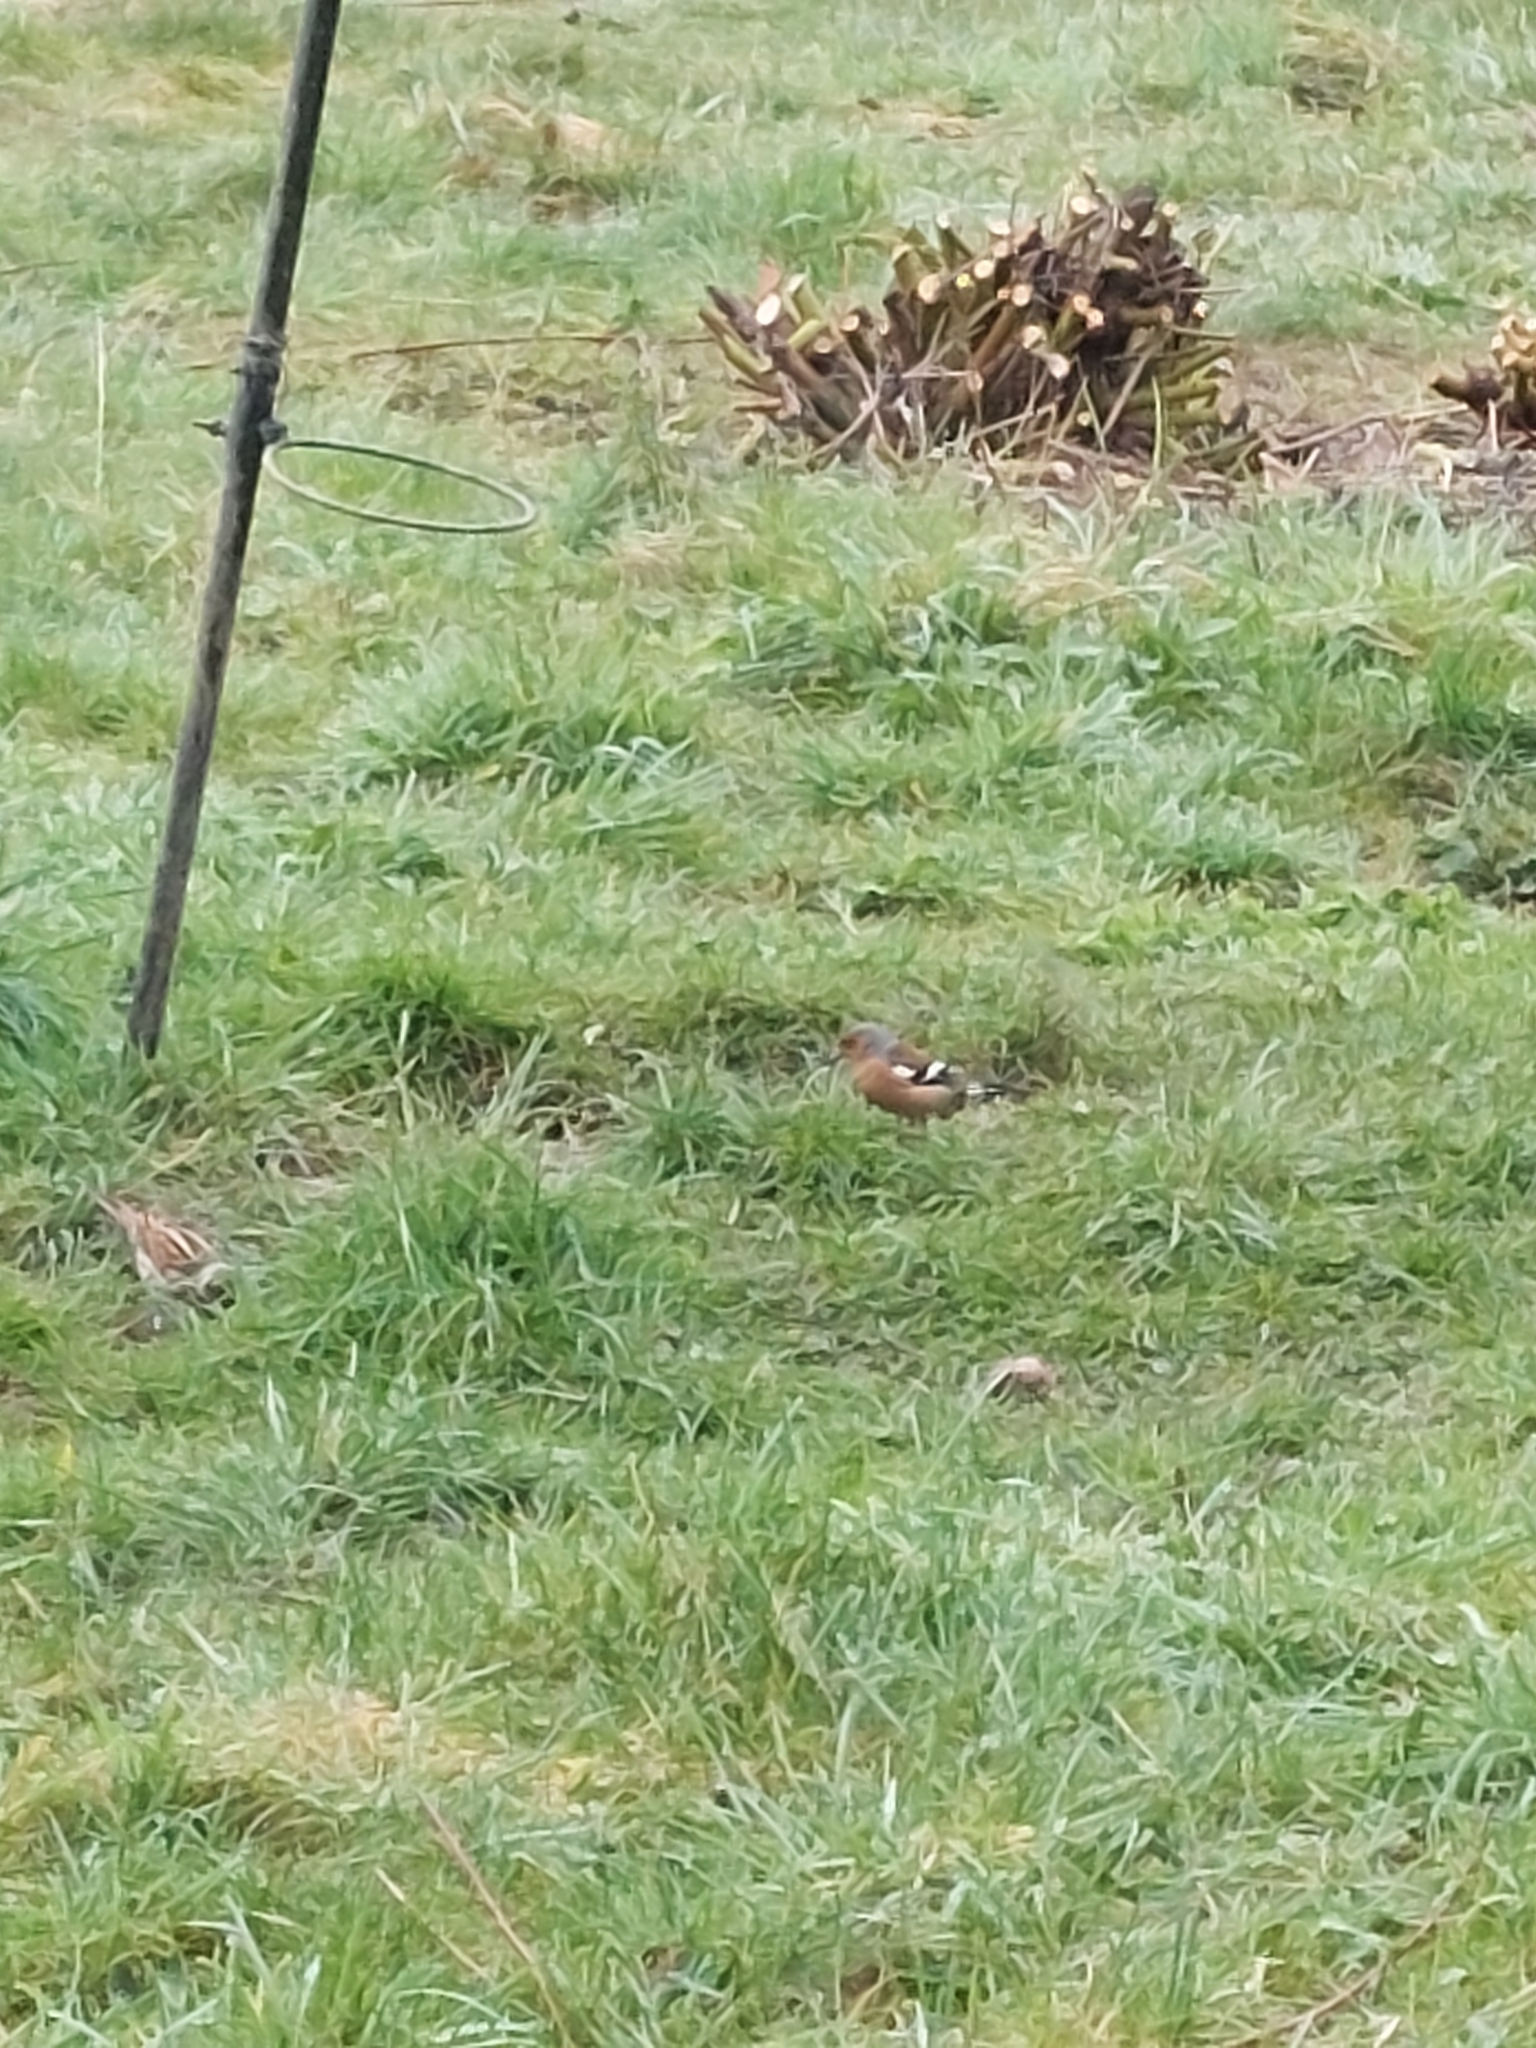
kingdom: Animalia
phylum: Chordata
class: Aves
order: Passeriformes
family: Fringillidae
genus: Fringilla
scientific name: Fringilla coelebs
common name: Common chaffinch
